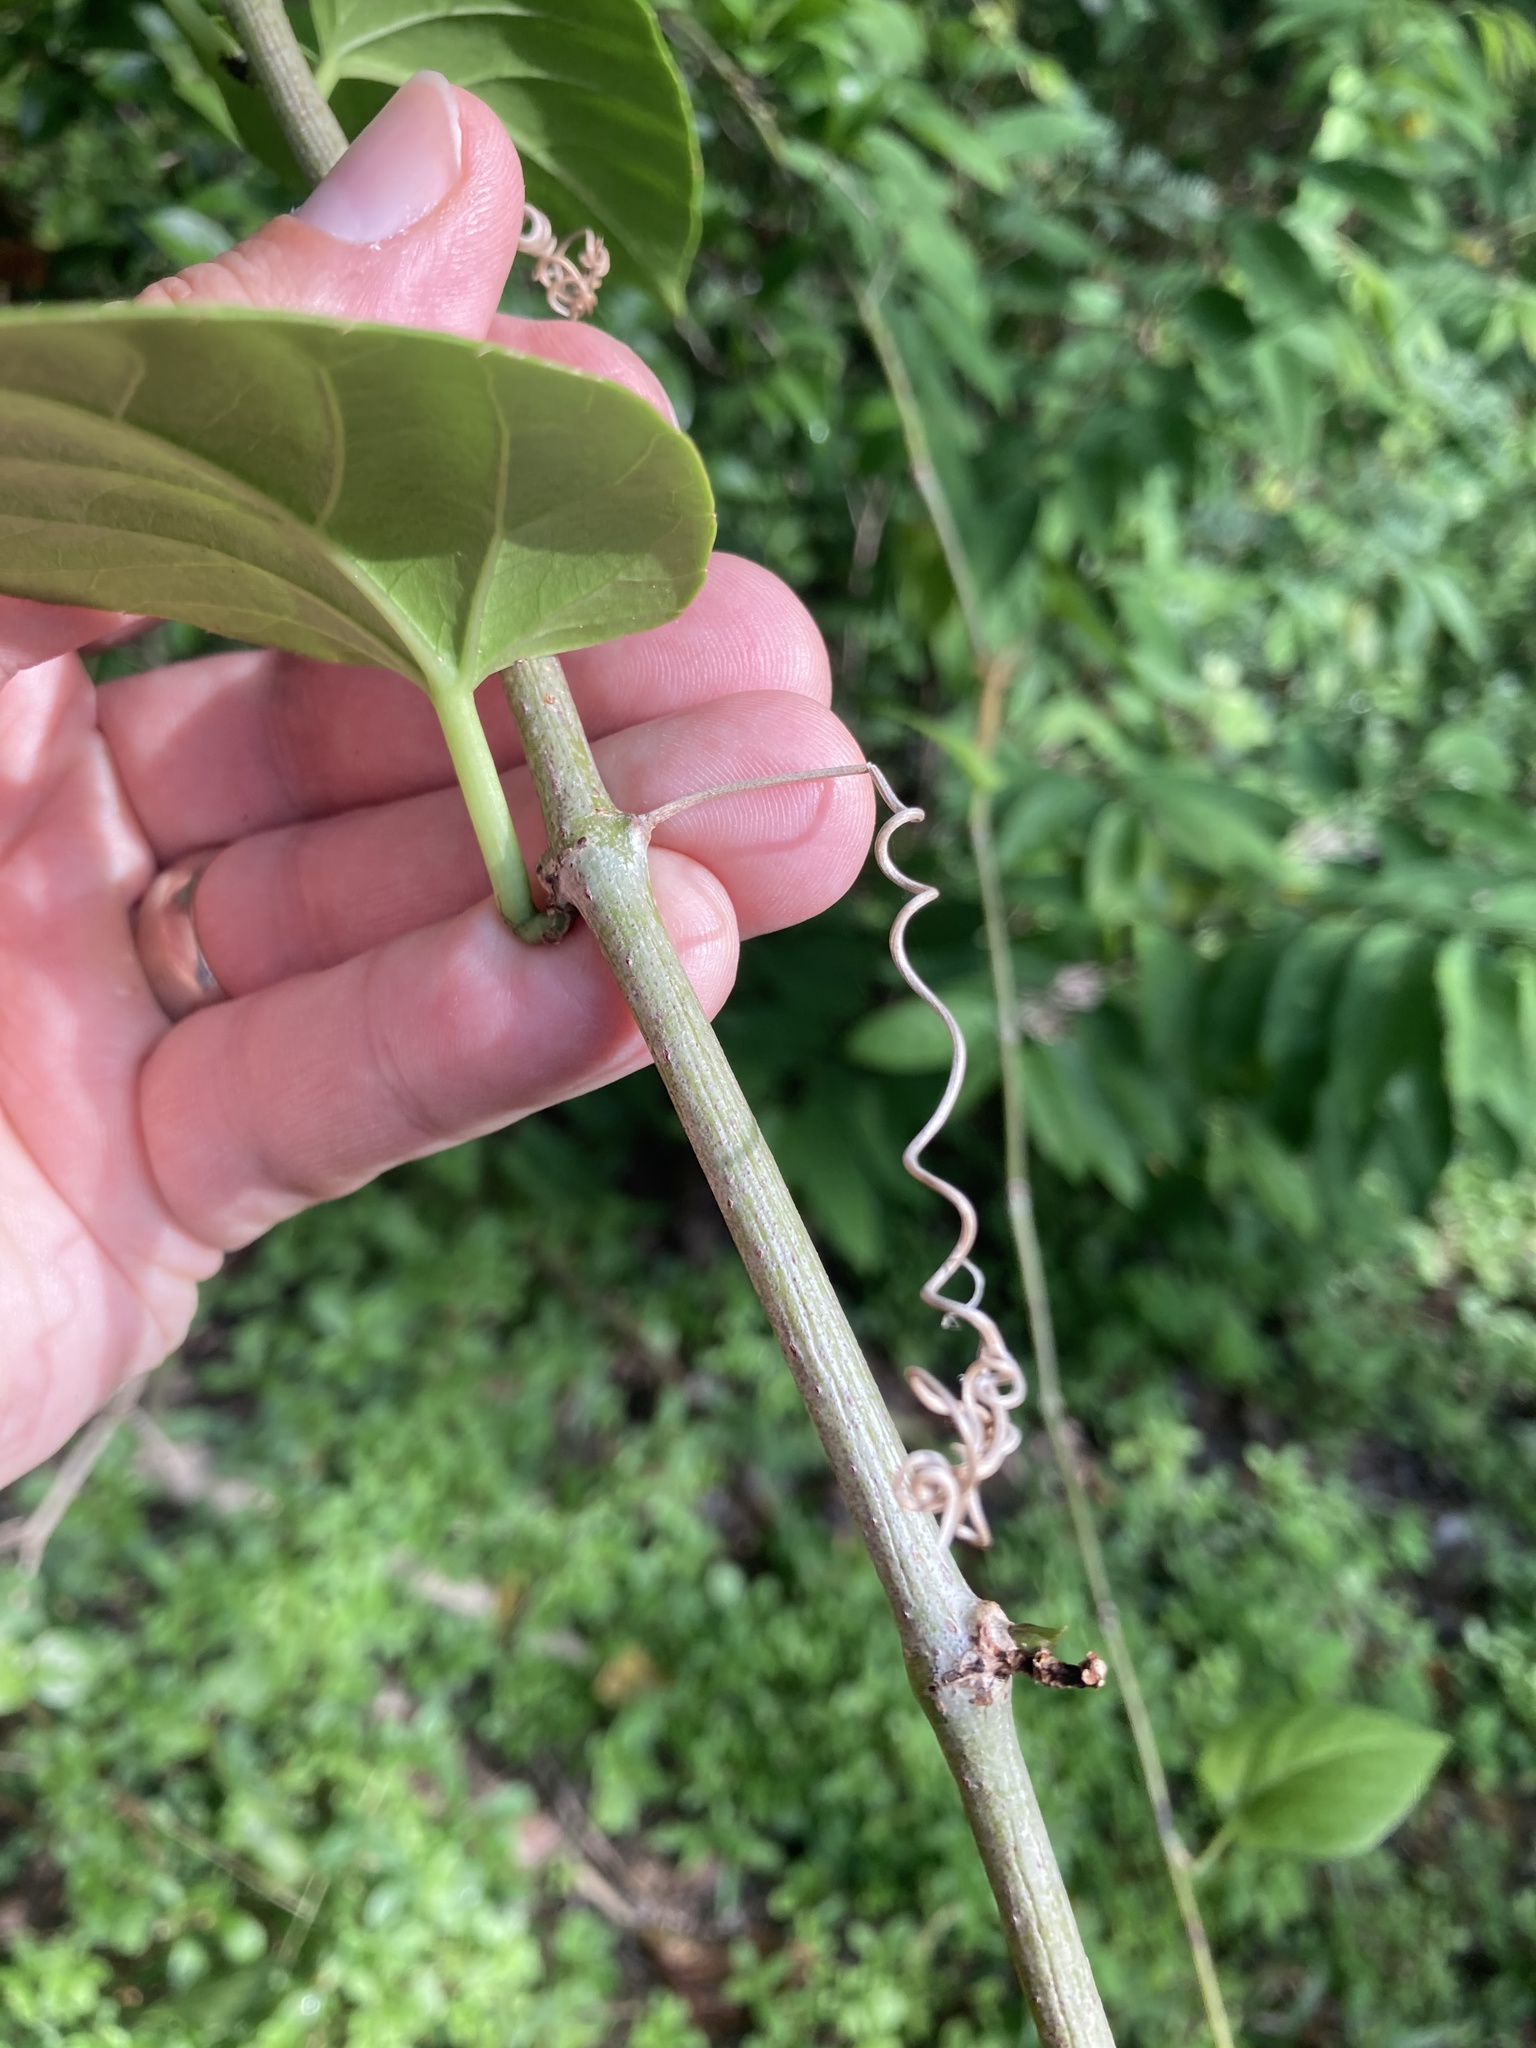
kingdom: Plantae
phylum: Tracheophyta
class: Magnoliopsida
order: Vitales
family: Vitaceae
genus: Cissus
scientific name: Cissus verticillata
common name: Princess vine
